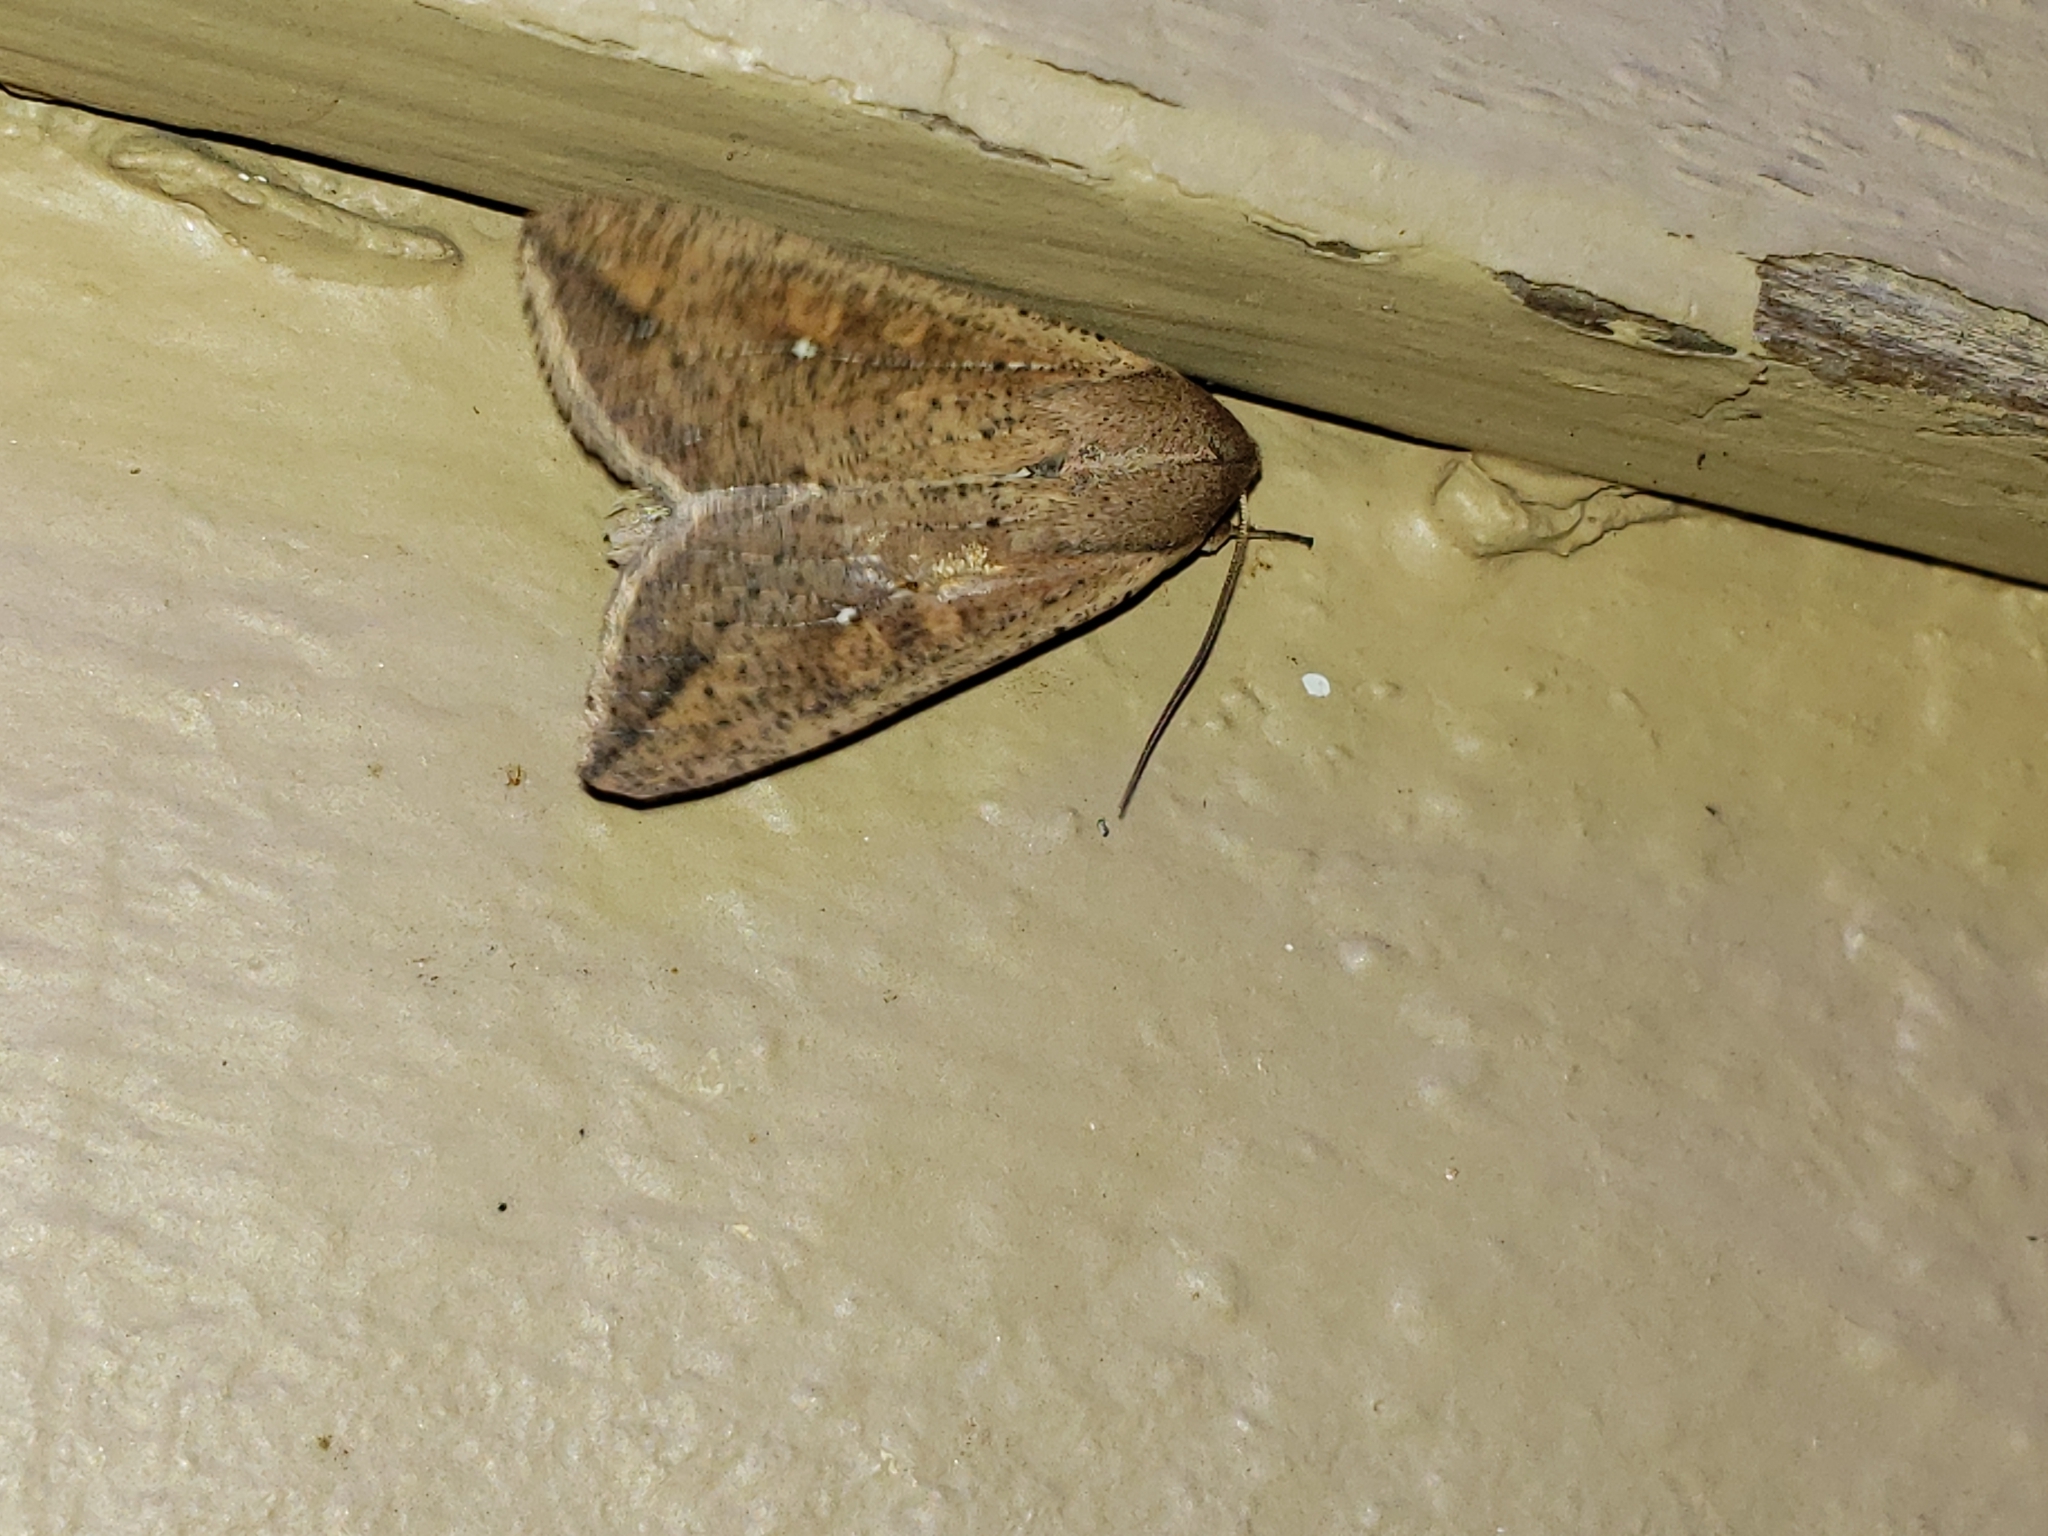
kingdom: Animalia
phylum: Arthropoda
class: Insecta
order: Lepidoptera
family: Noctuidae
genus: Mythimna
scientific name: Mythimna unipuncta
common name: White-speck
